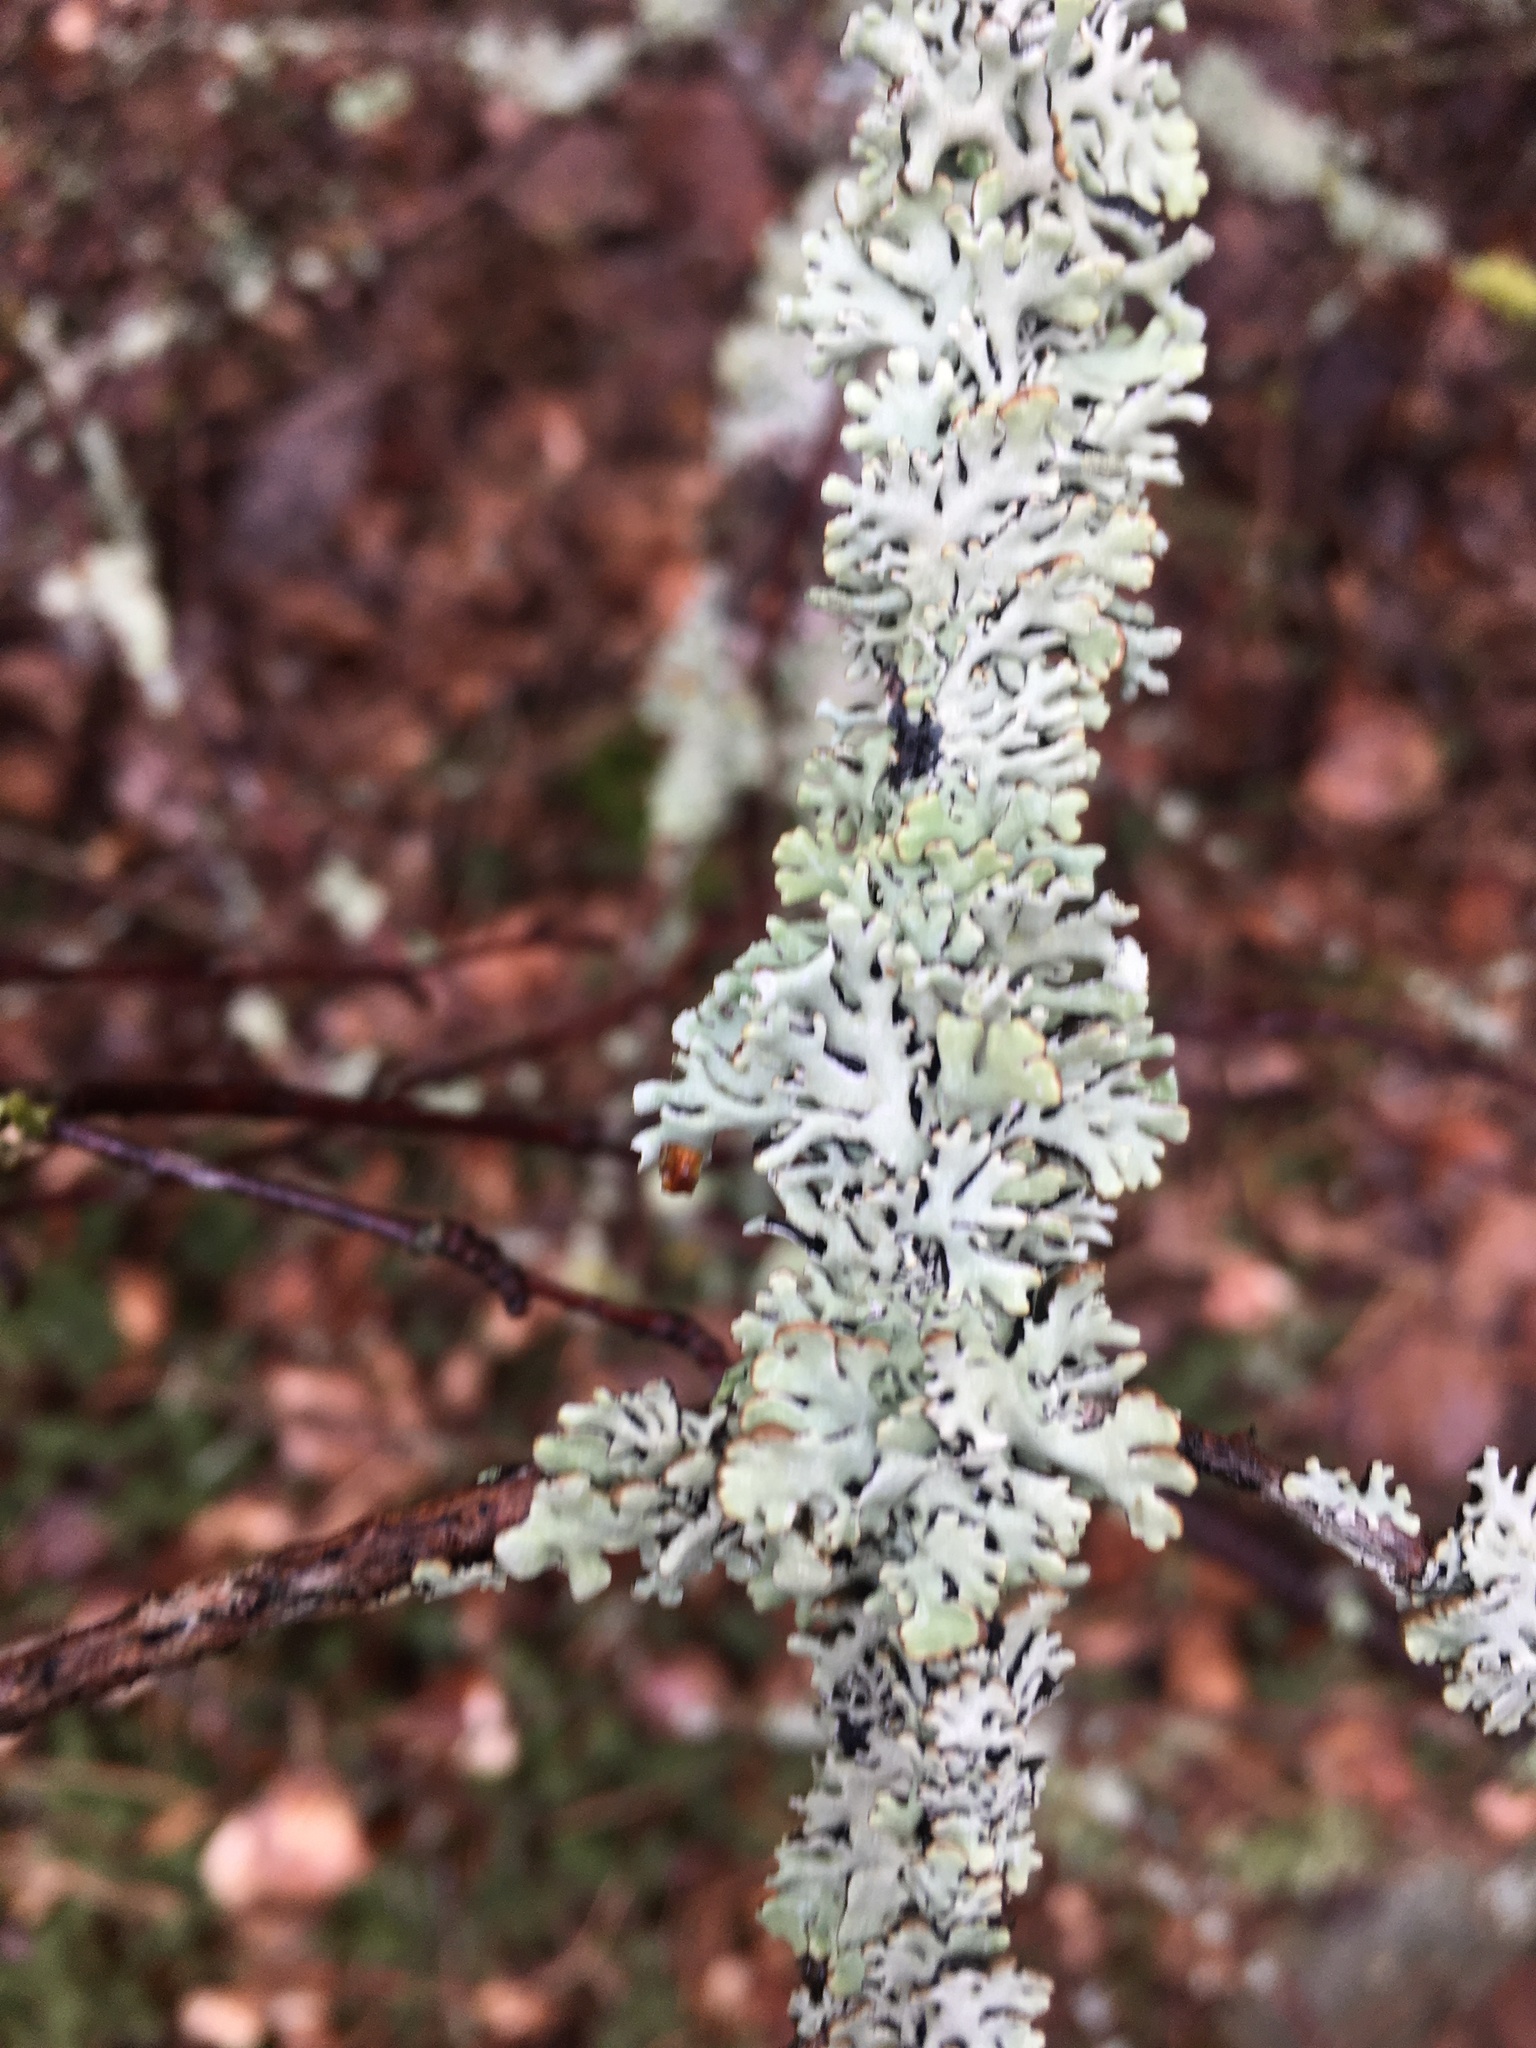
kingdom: Fungi
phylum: Ascomycota
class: Lecanoromycetes
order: Lecanorales
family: Parmeliaceae
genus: Hypogymnia
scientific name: Hypogymnia physodes
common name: Dark crottle
